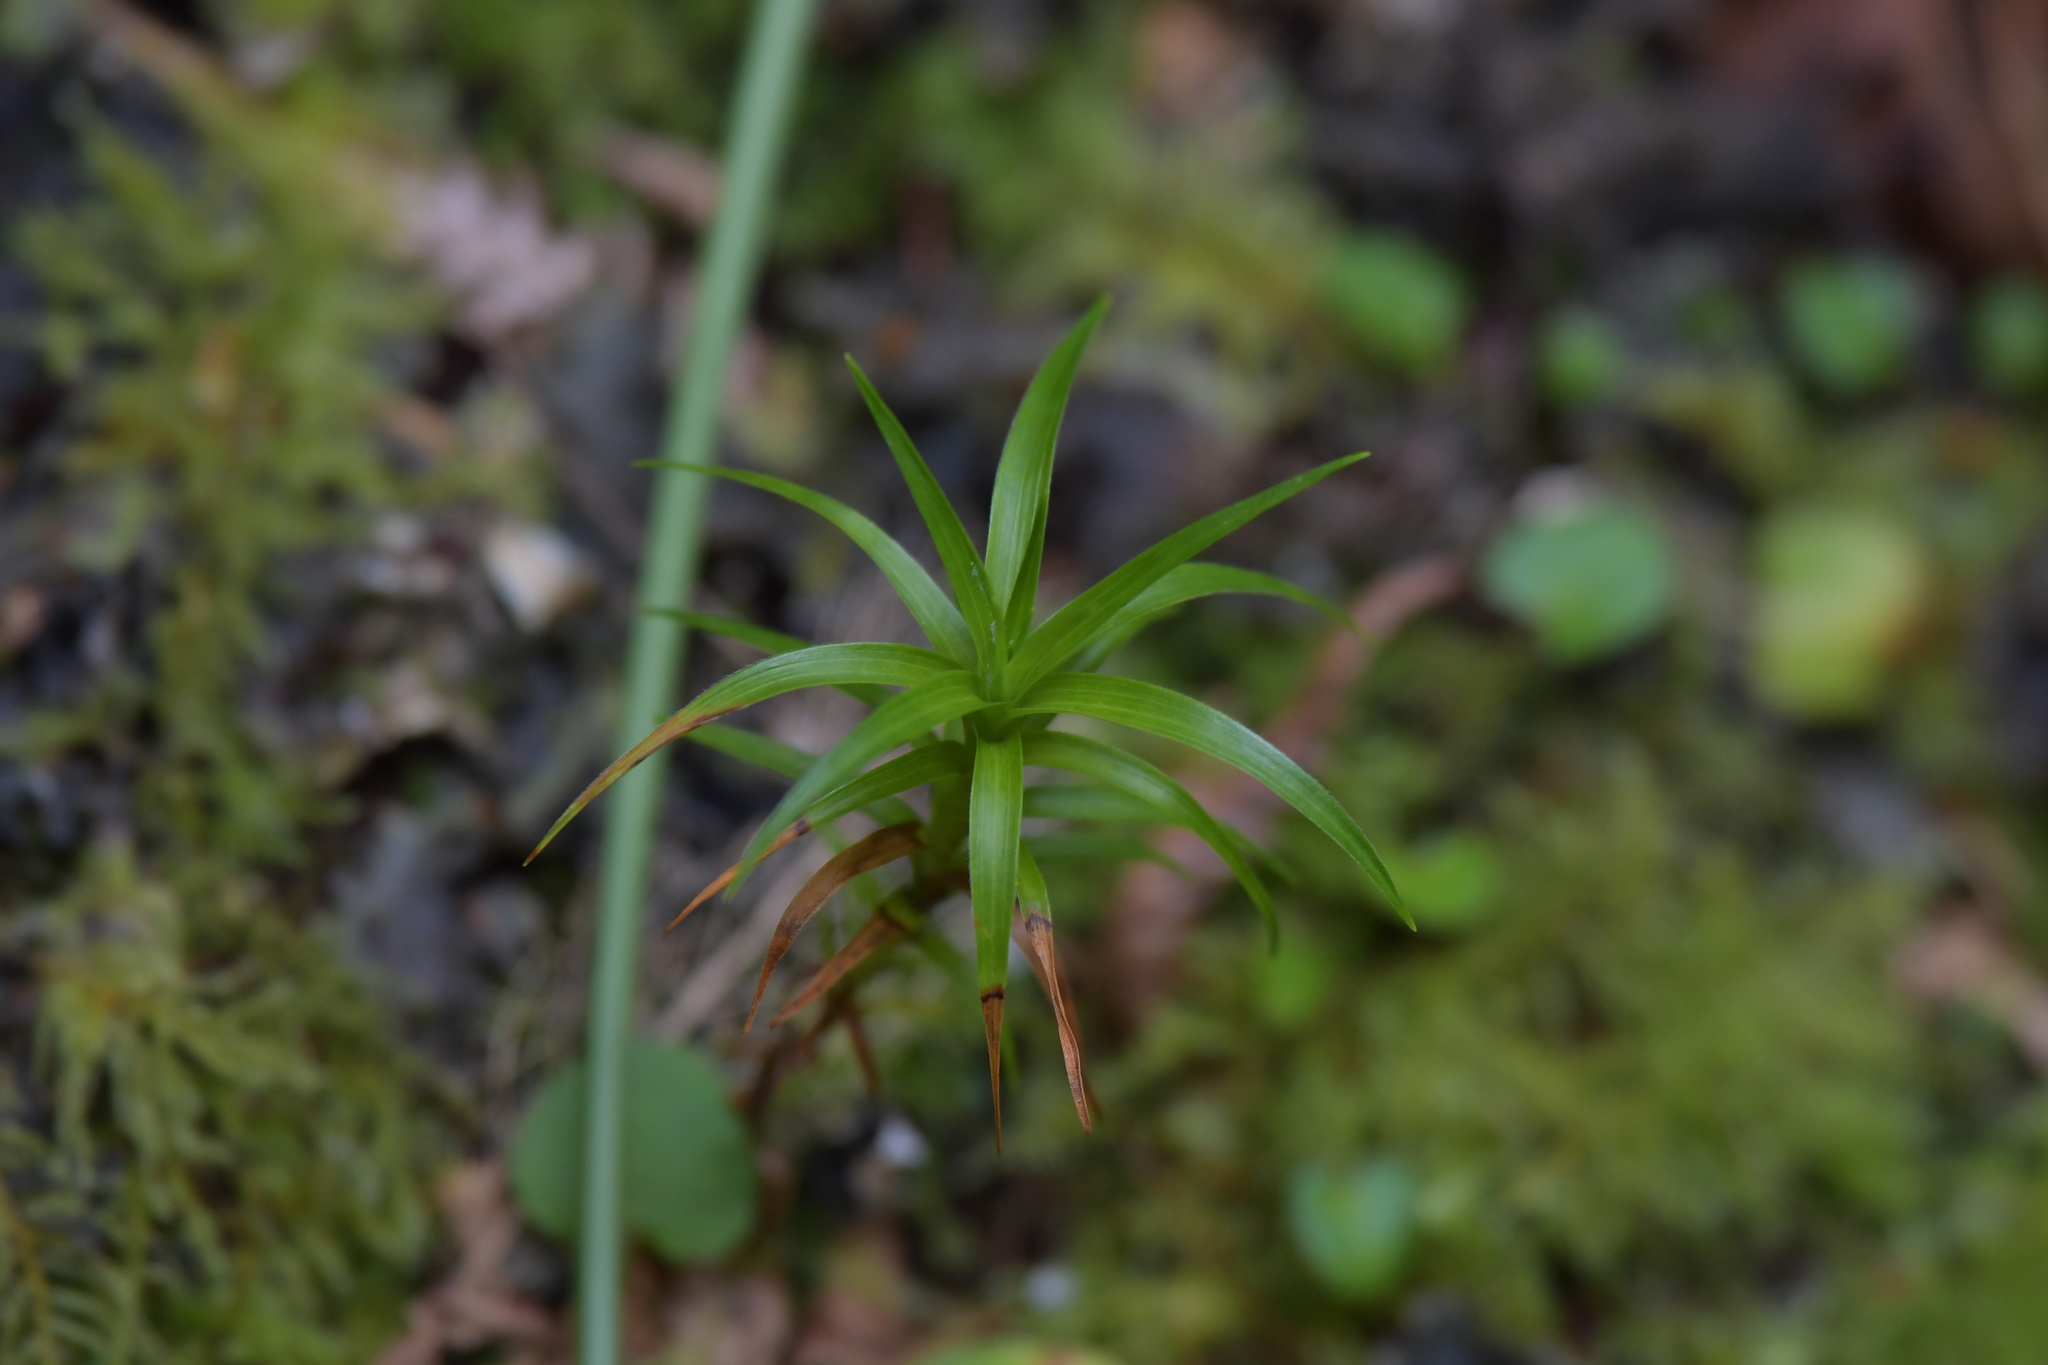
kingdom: Plantae
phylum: Tracheophyta
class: Magnoliopsida
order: Ericales
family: Ericaceae
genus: Dracophyllum
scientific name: Dracophyllum arboreum
